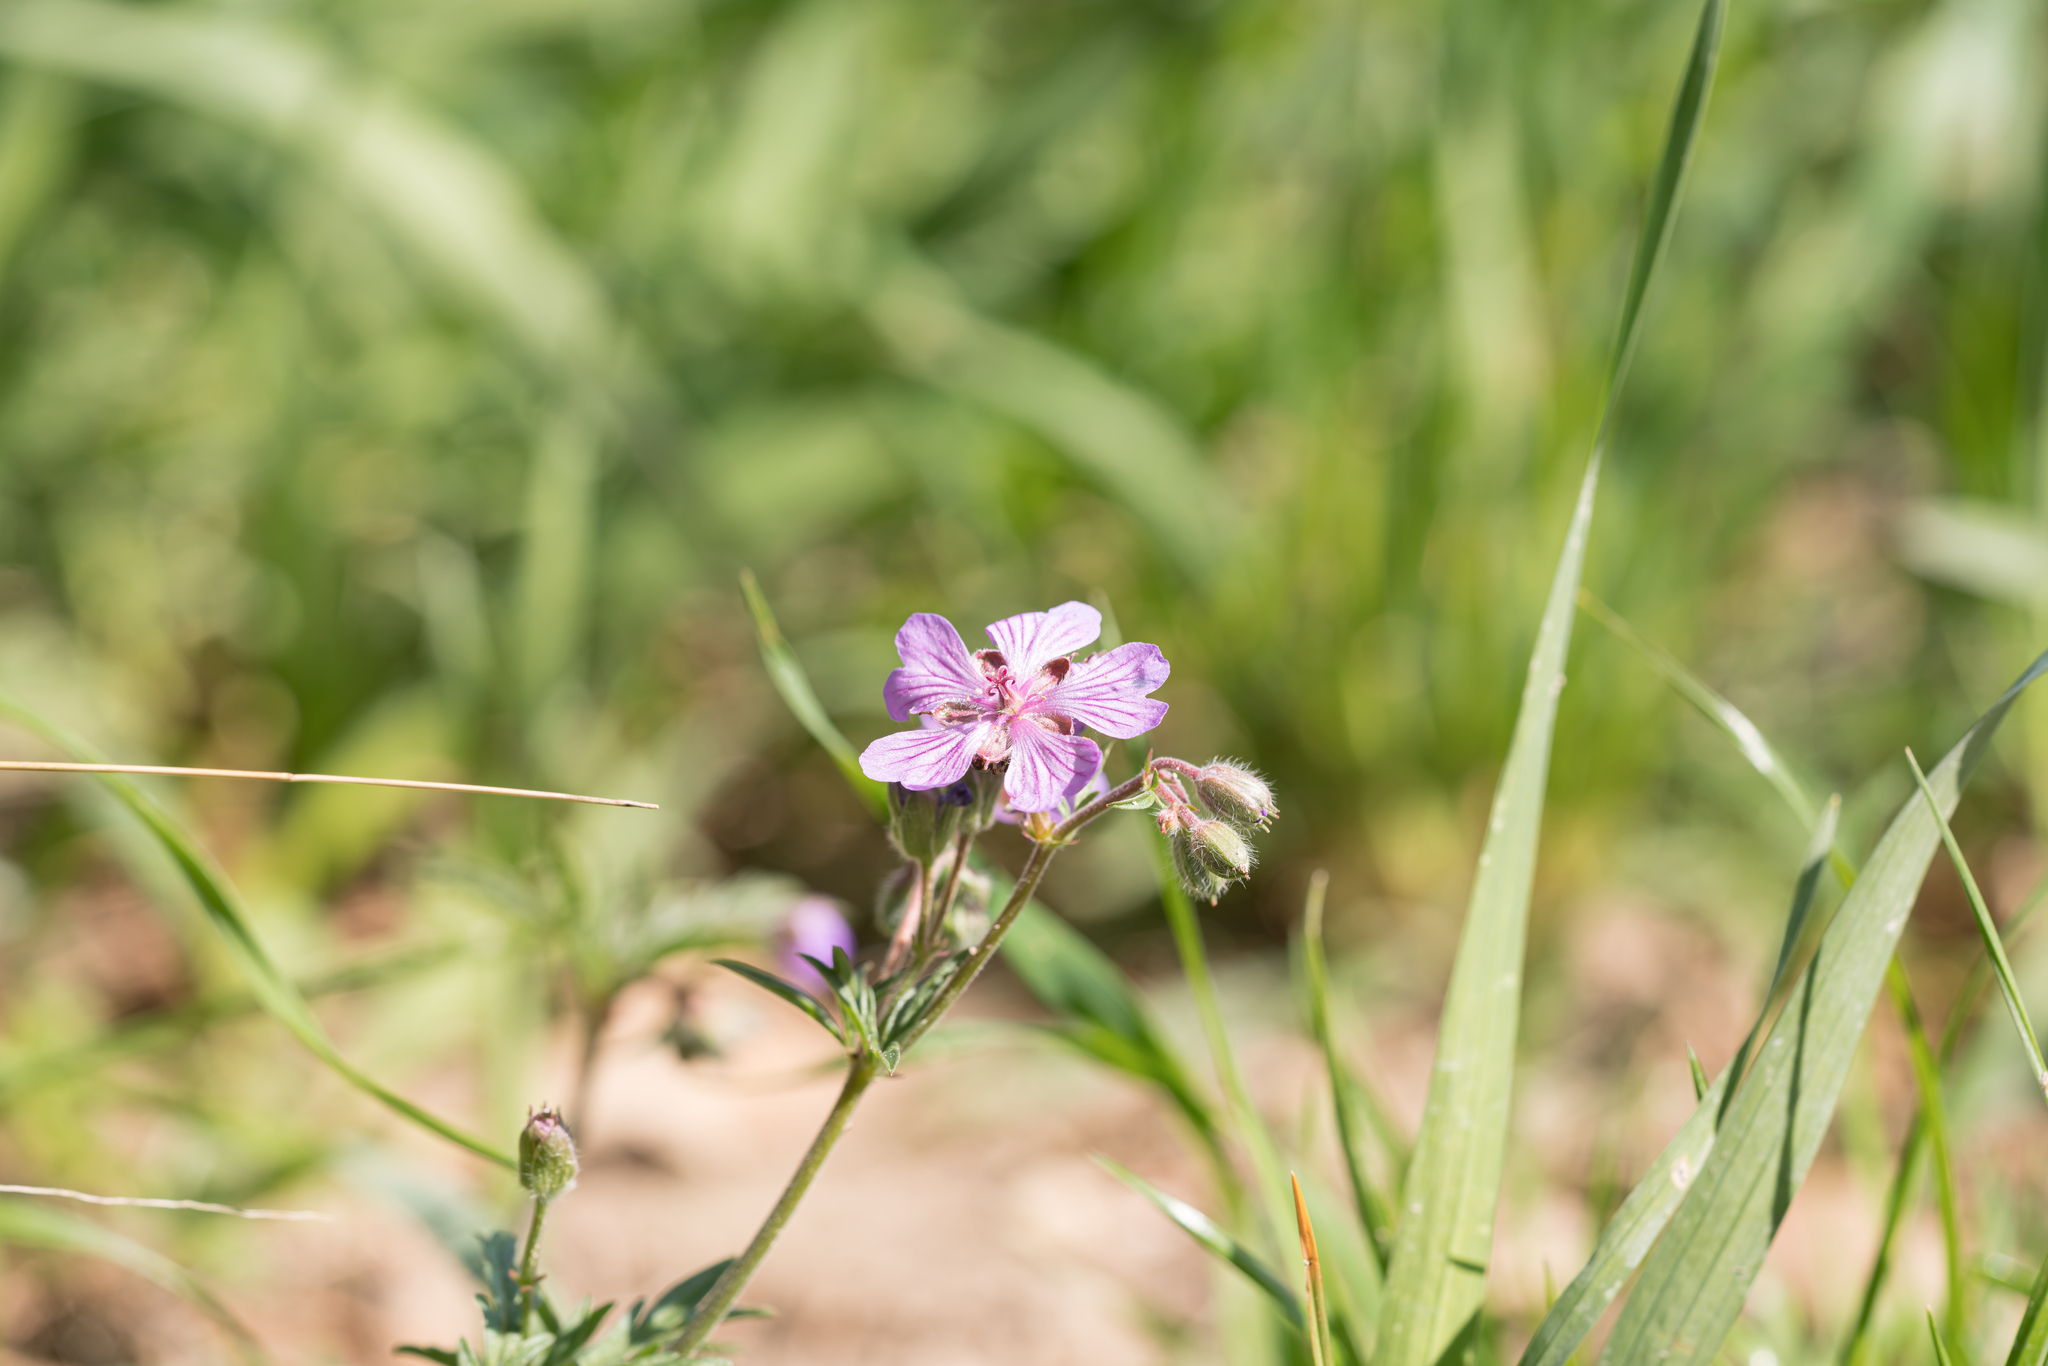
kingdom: Plantae
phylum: Tracheophyta
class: Magnoliopsida
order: Geraniales
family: Geraniaceae
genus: Geranium
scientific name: Geranium tuberosum
